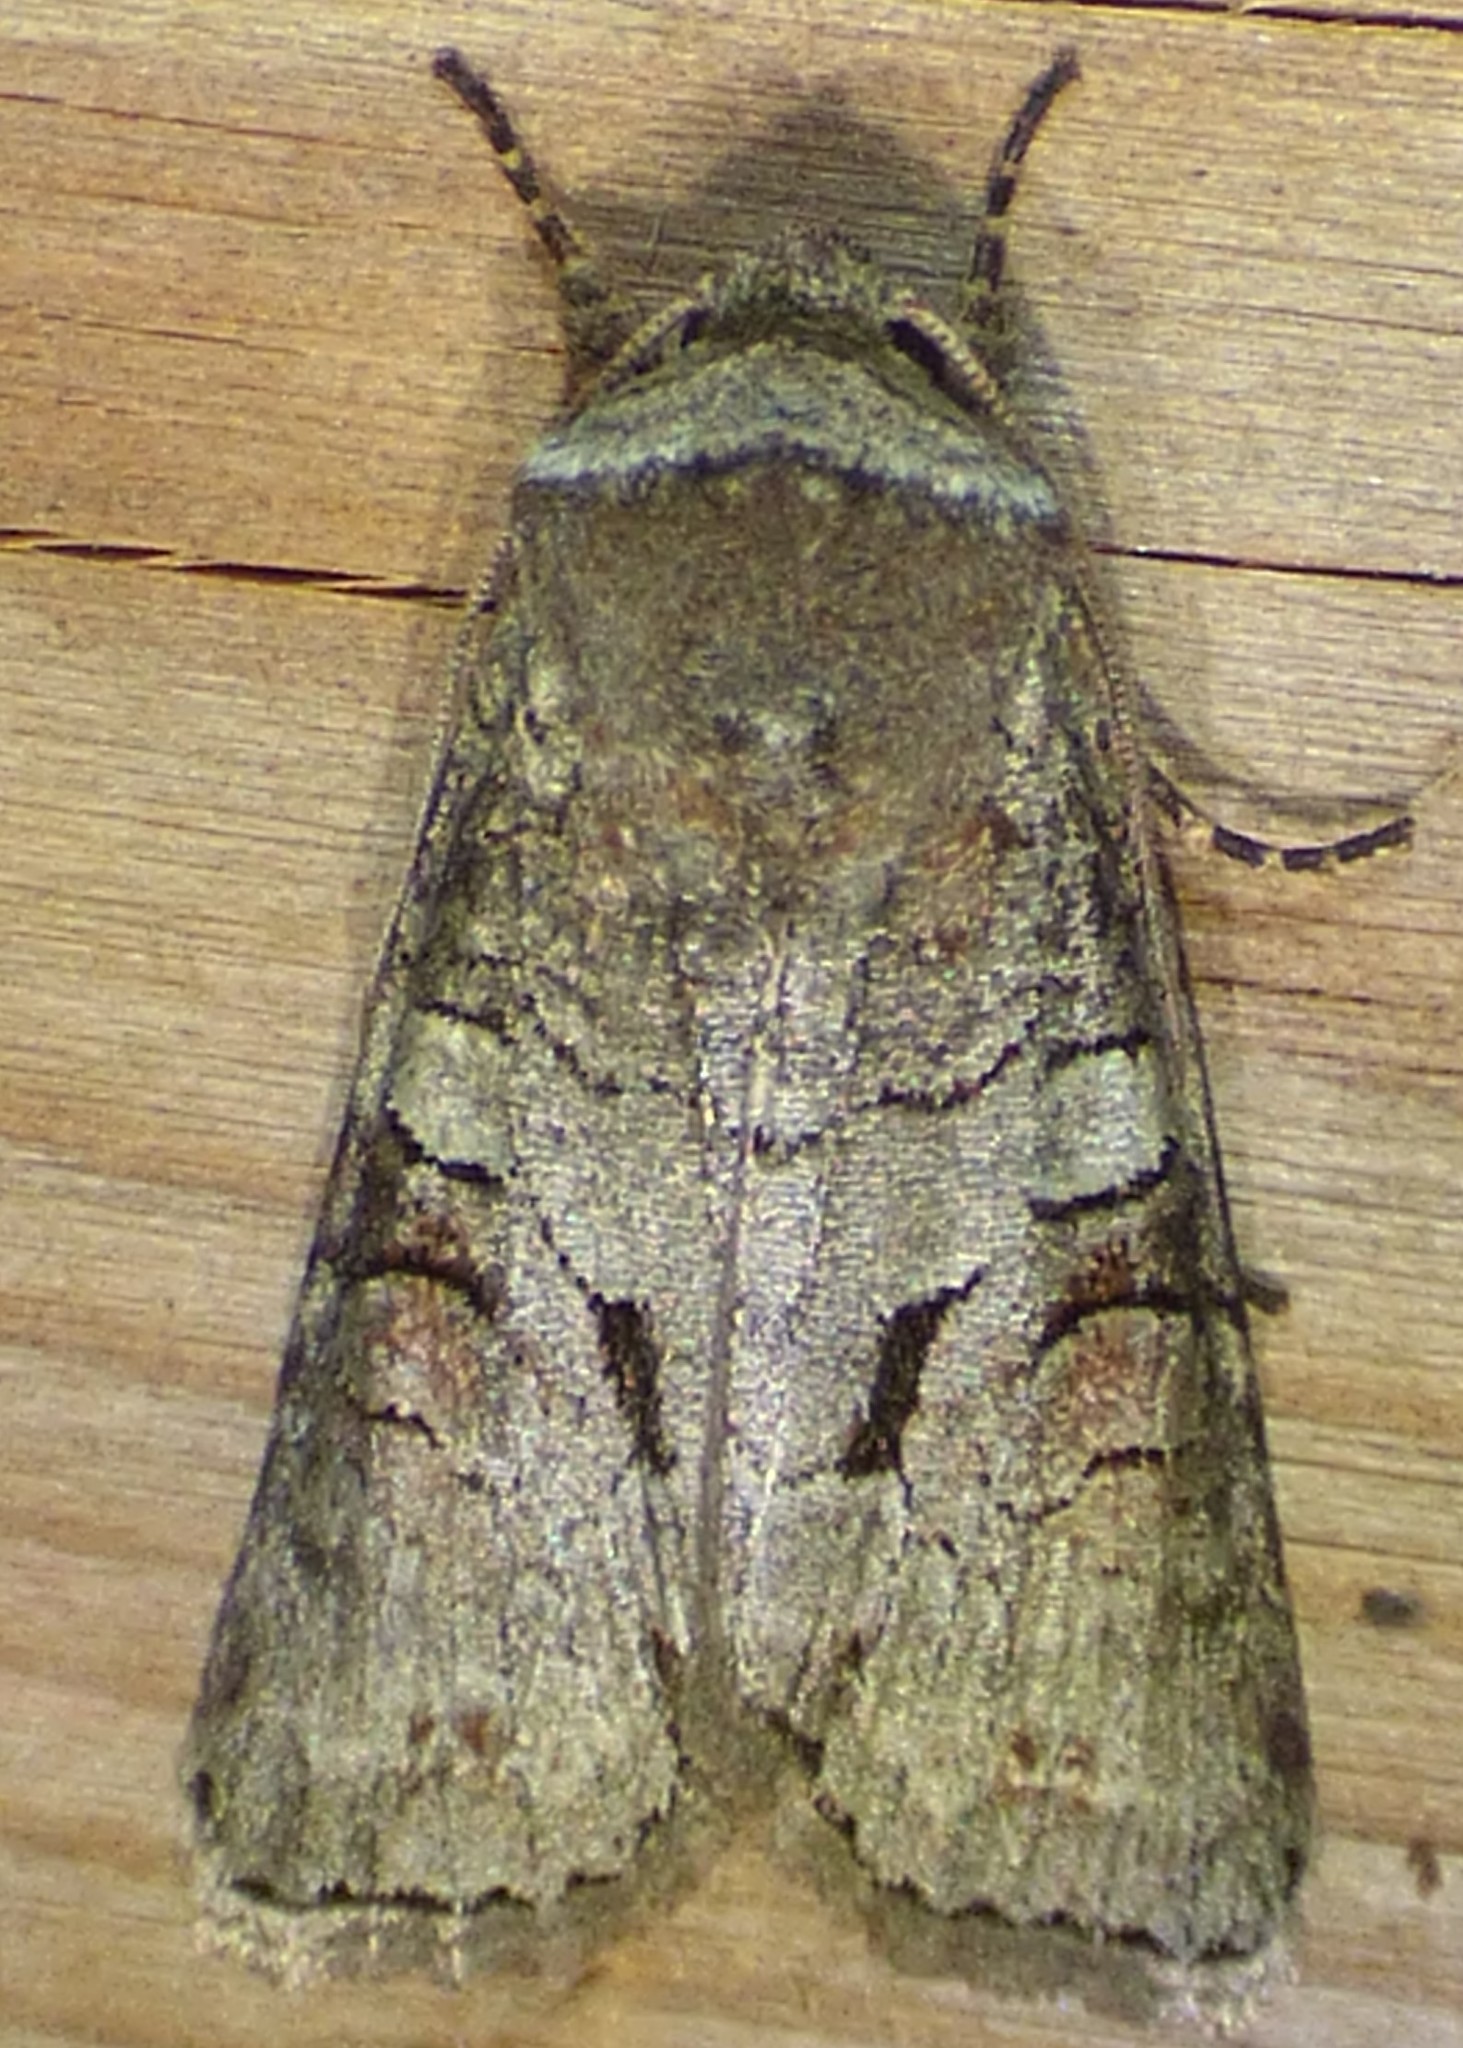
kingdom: Animalia
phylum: Arthropoda
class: Insecta
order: Lepidoptera
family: Noctuidae
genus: Egira
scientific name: Egira alternans
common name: Alternate woodling
